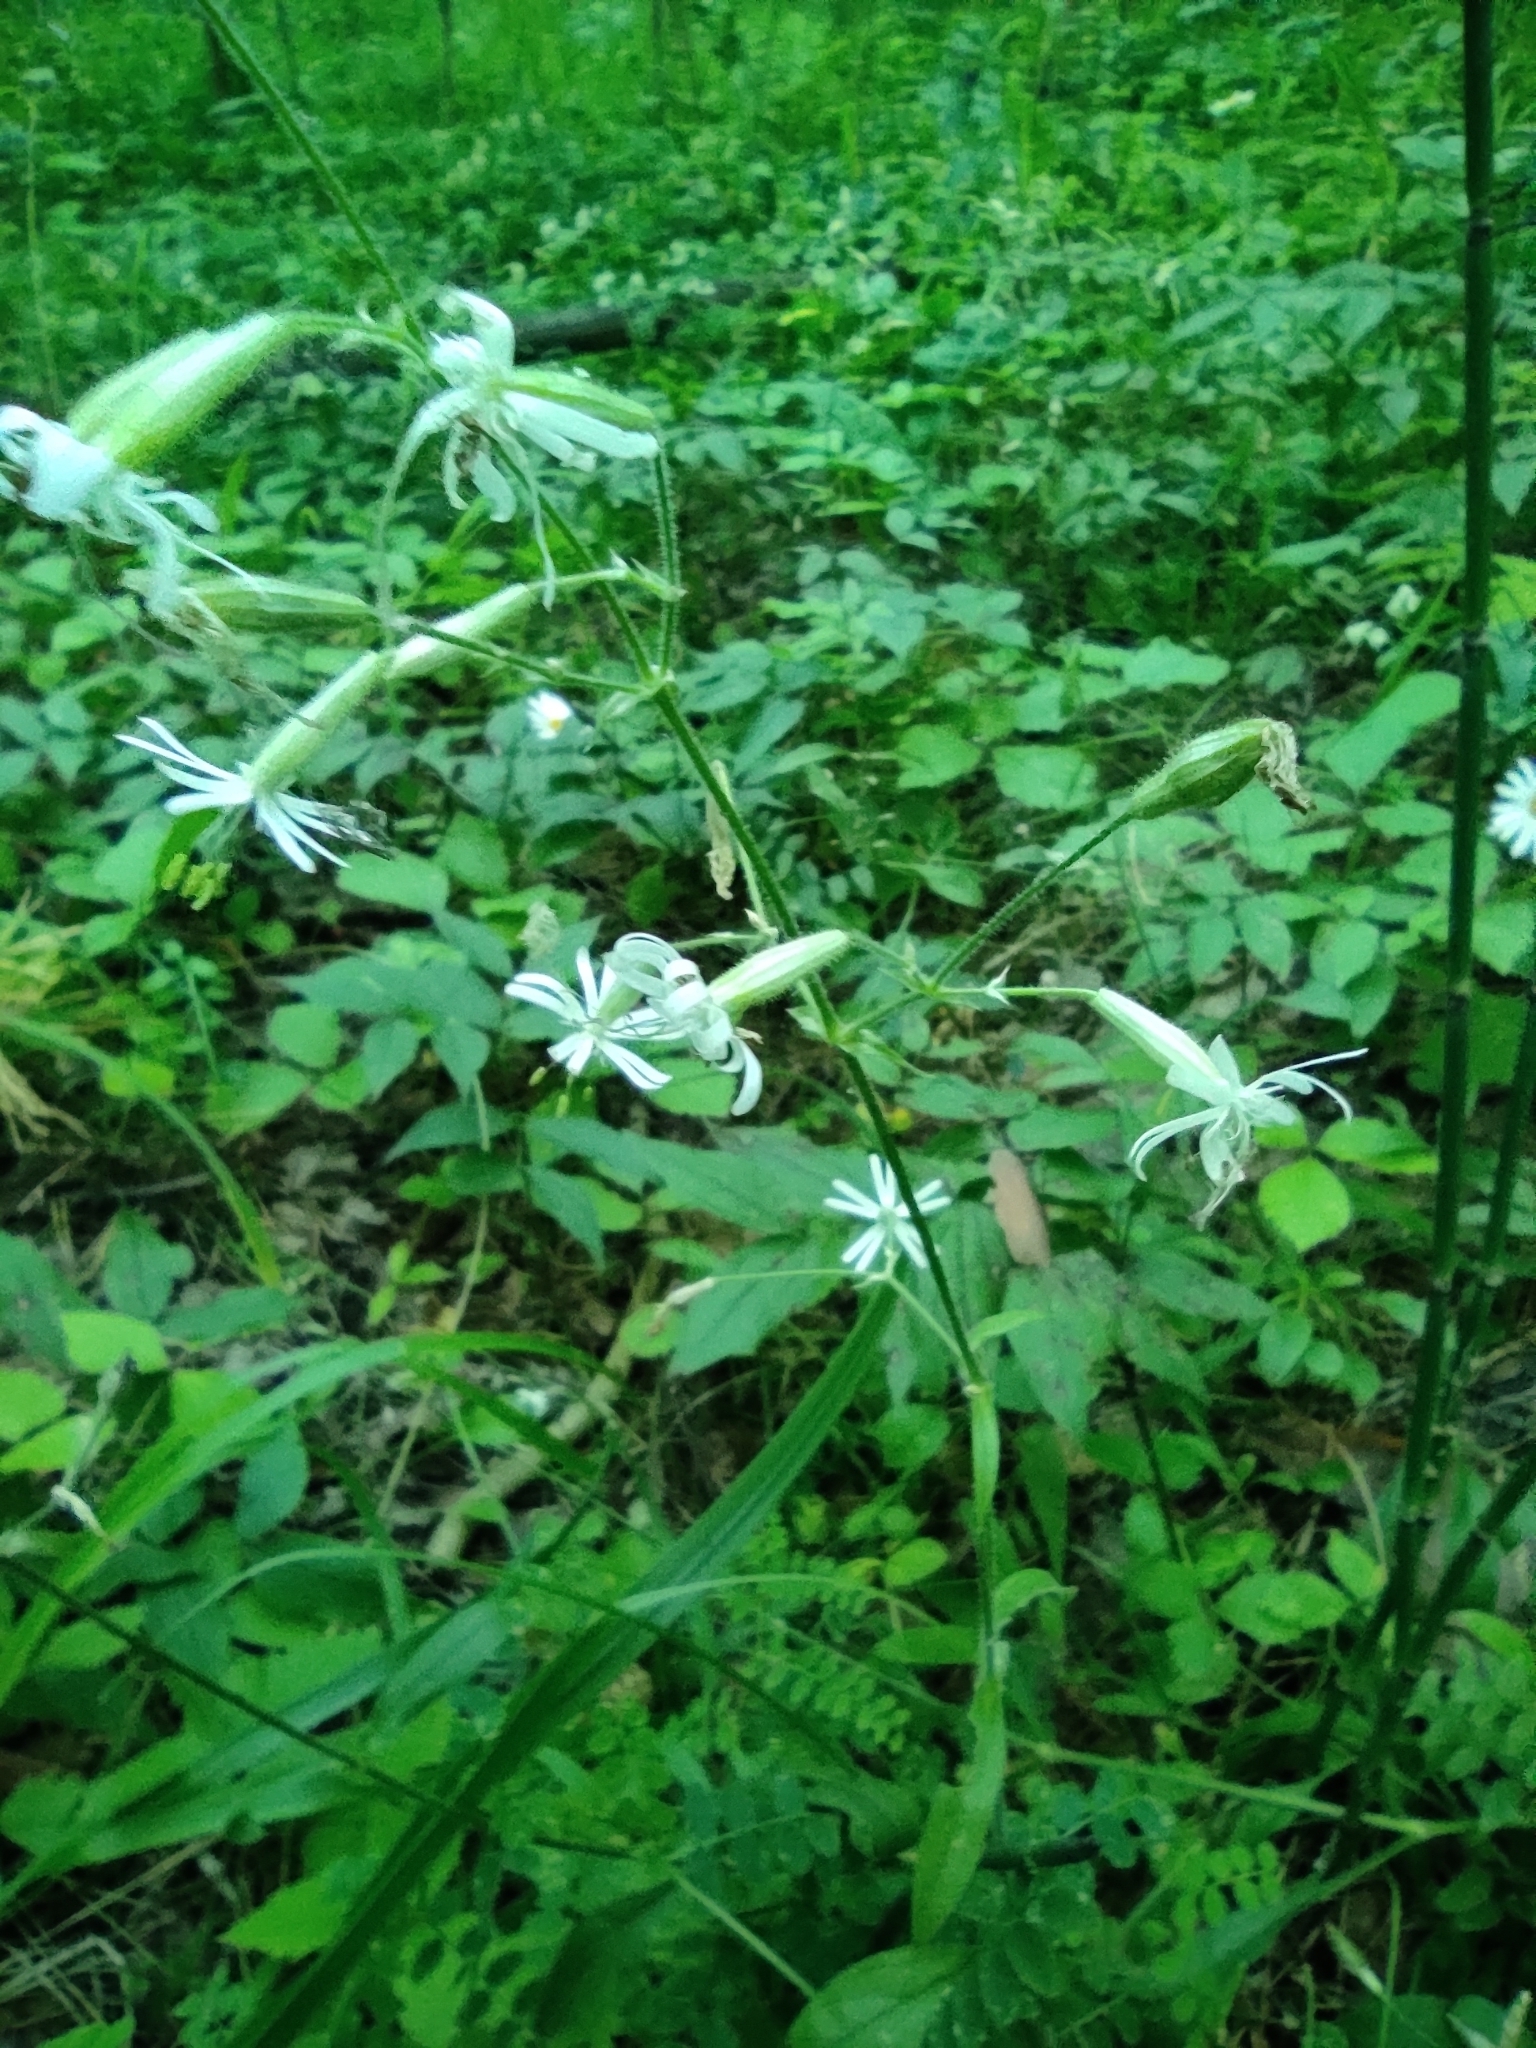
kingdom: Plantae
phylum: Tracheophyta
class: Magnoliopsida
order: Caryophyllales
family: Caryophyllaceae
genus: Silene
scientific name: Silene nutans
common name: Nottingham catchfly
